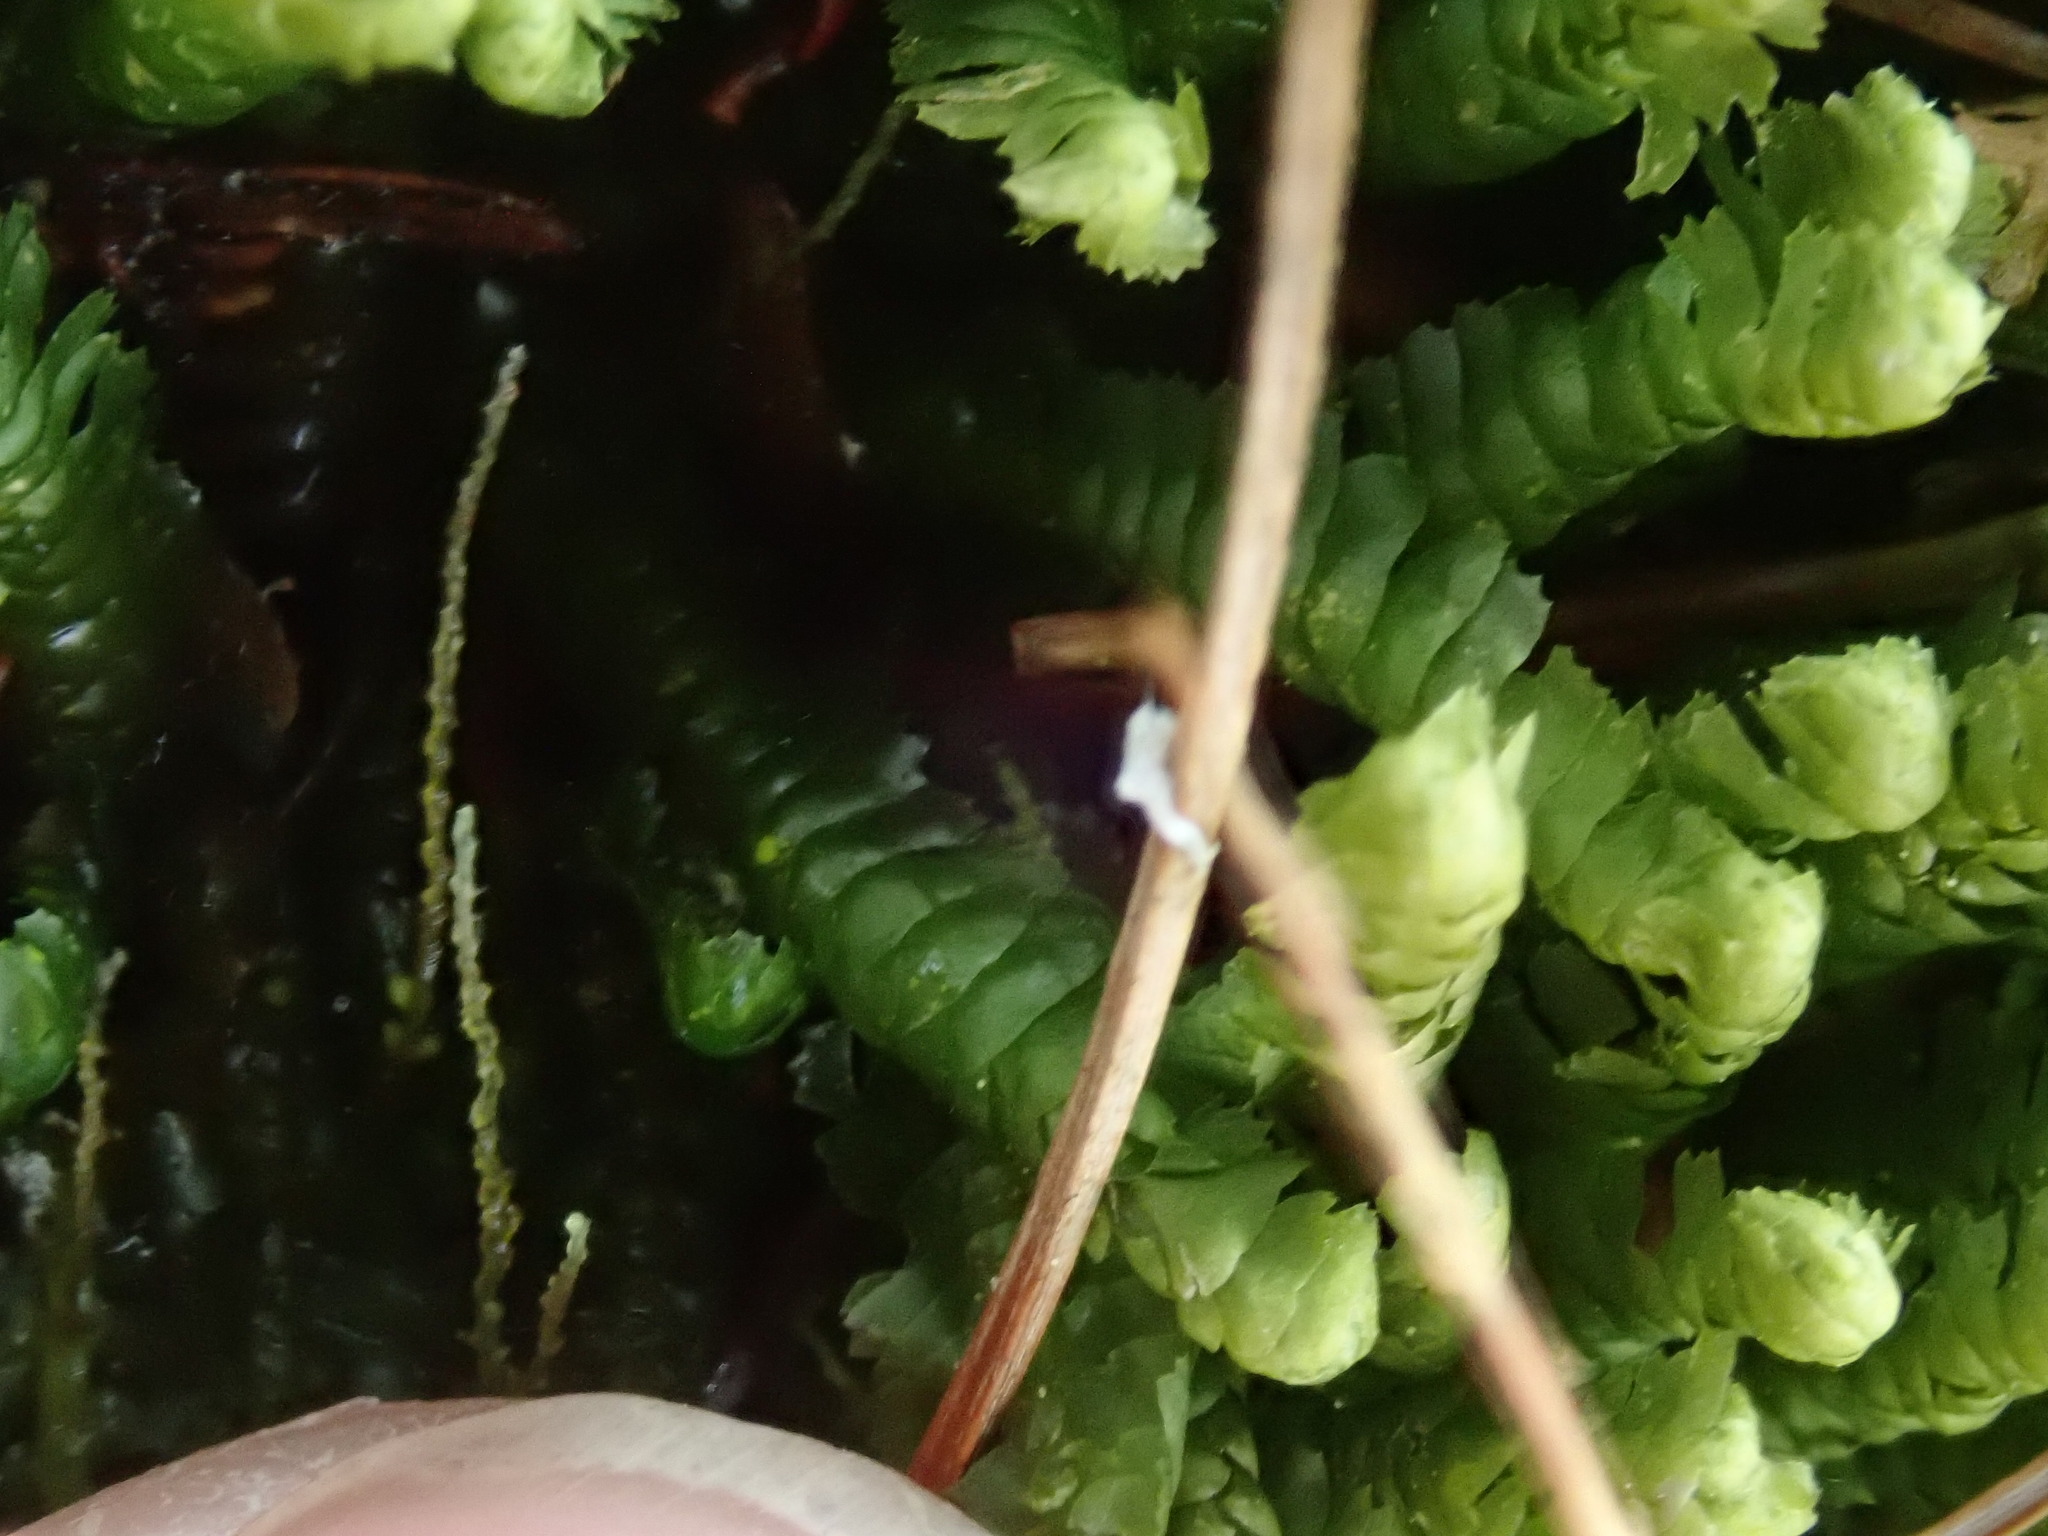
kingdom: Plantae
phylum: Marchantiophyta
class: Jungermanniopsida
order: Jungermanniales
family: Lepidoziaceae
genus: Bazzania
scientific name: Bazzania trilobata
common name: Three-lobed whipwort
